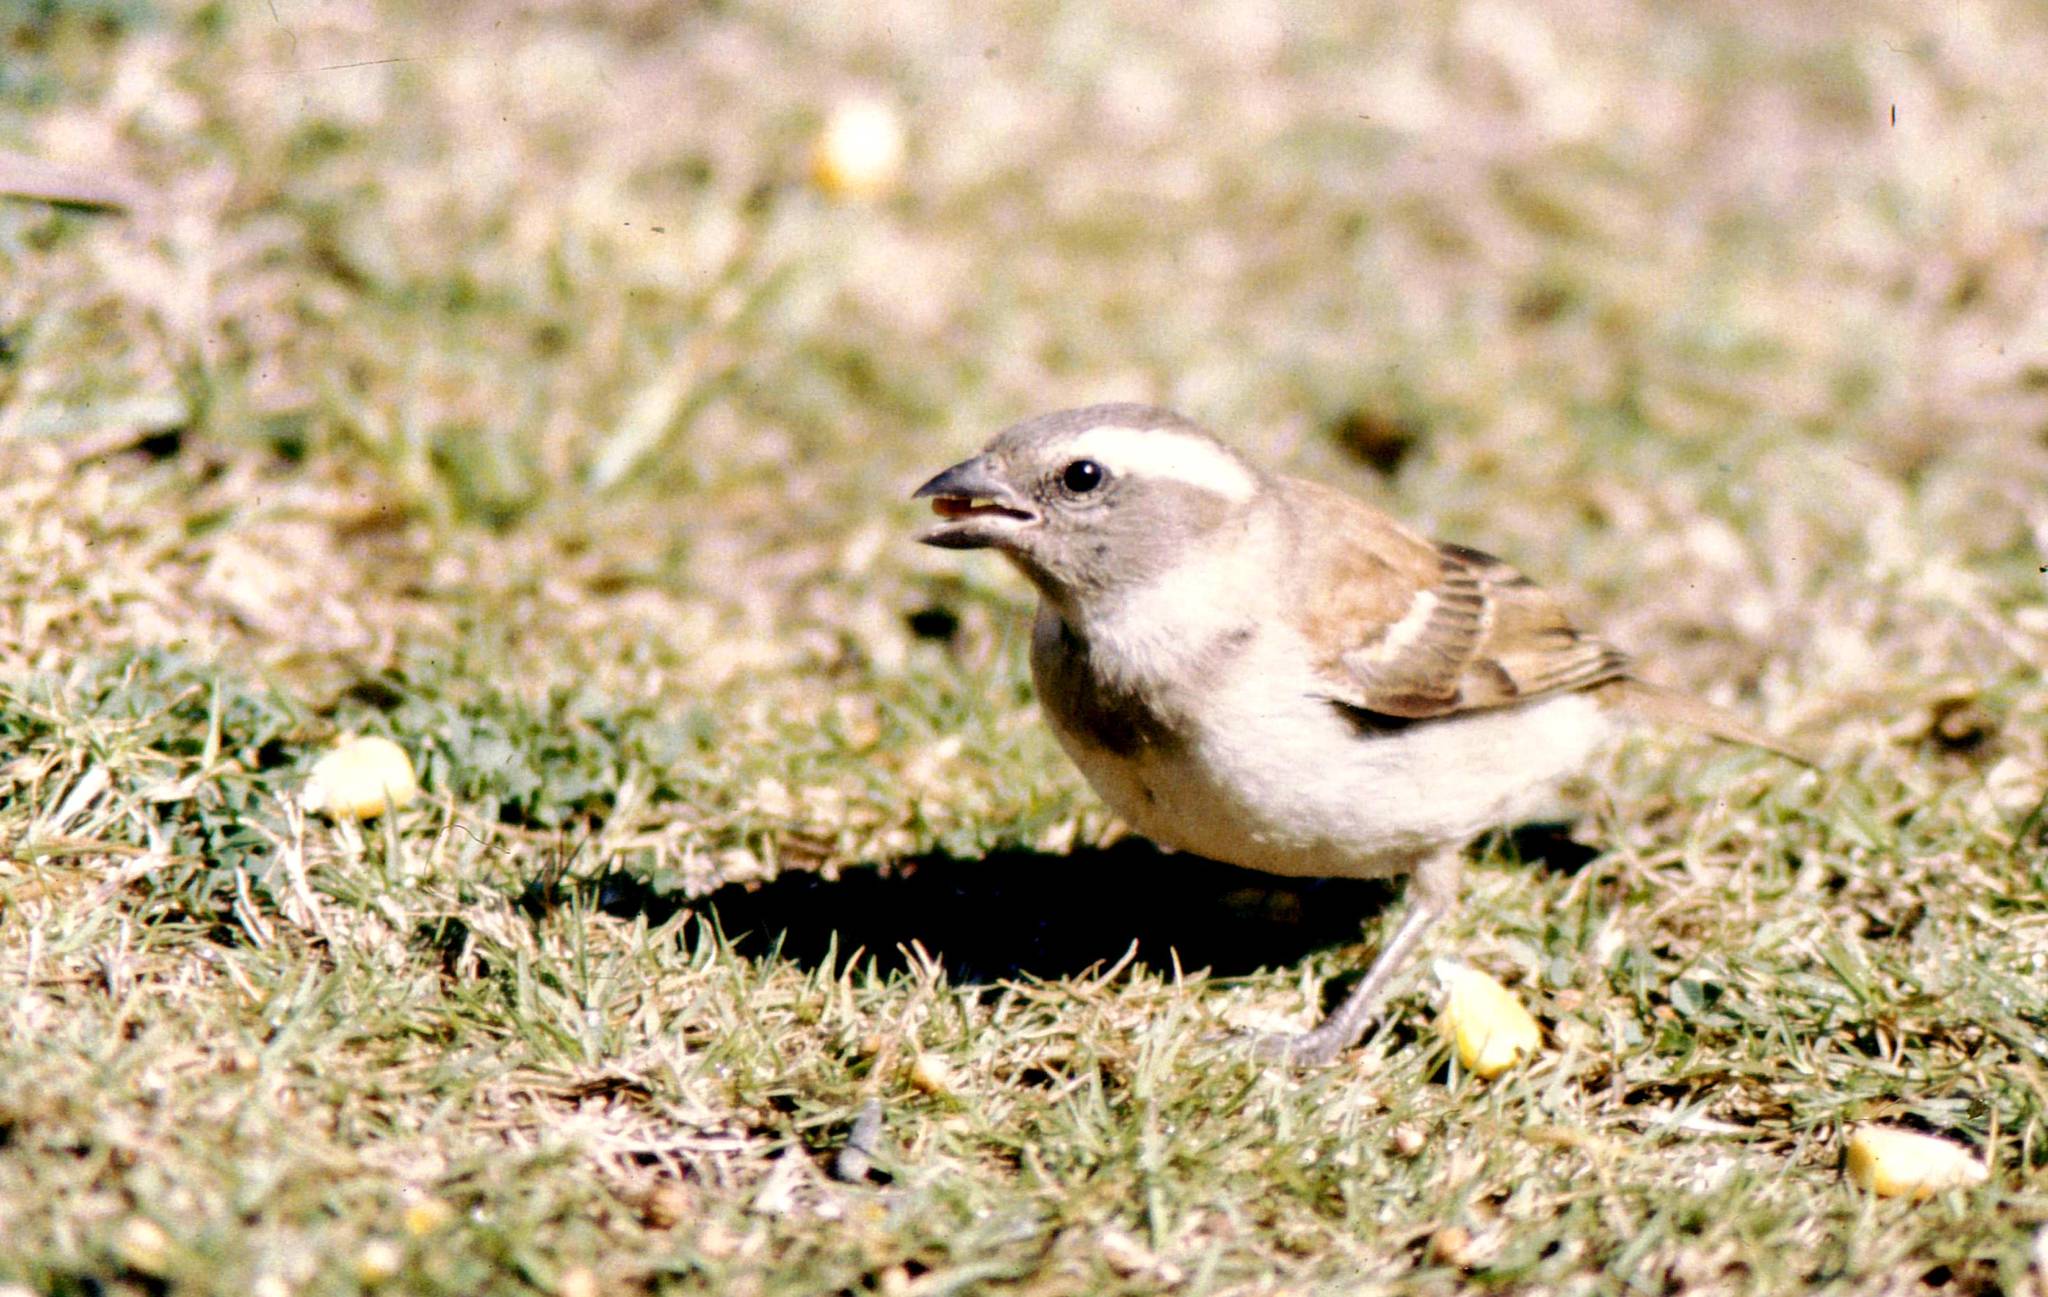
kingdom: Animalia
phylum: Chordata
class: Aves
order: Passeriformes
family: Passeridae
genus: Passer
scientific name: Passer melanurus
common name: Cape sparrow
